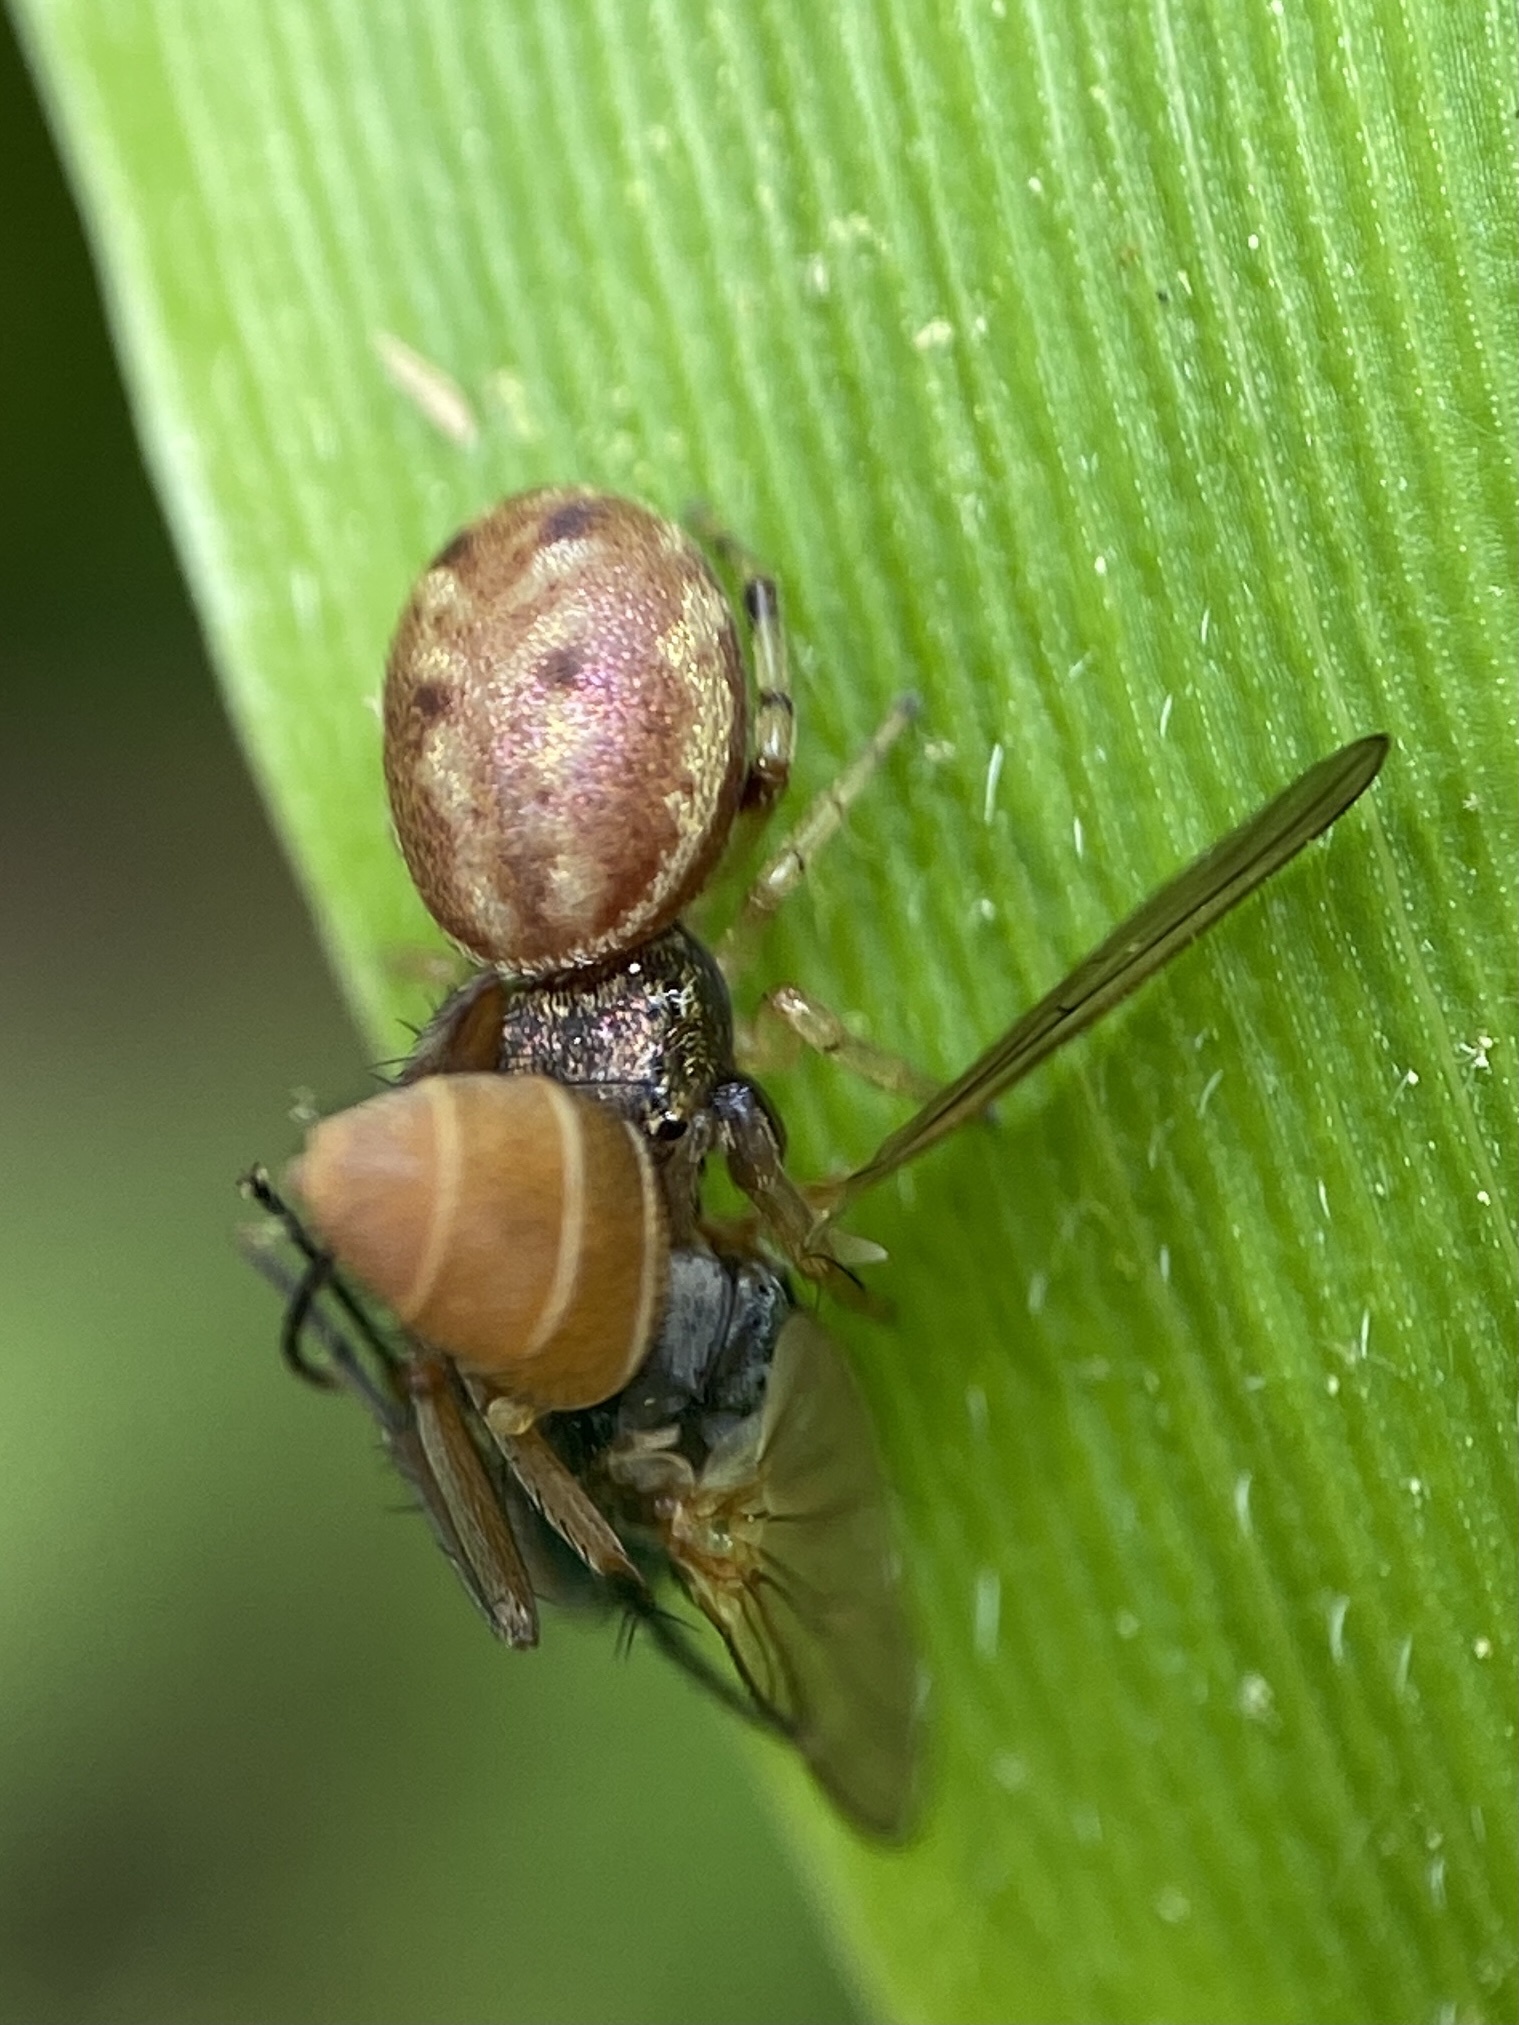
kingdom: Animalia
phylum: Arthropoda
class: Arachnida
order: Araneae
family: Salticidae
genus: Zygoballus
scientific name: Zygoballus rufipes
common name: Jumping spiders
